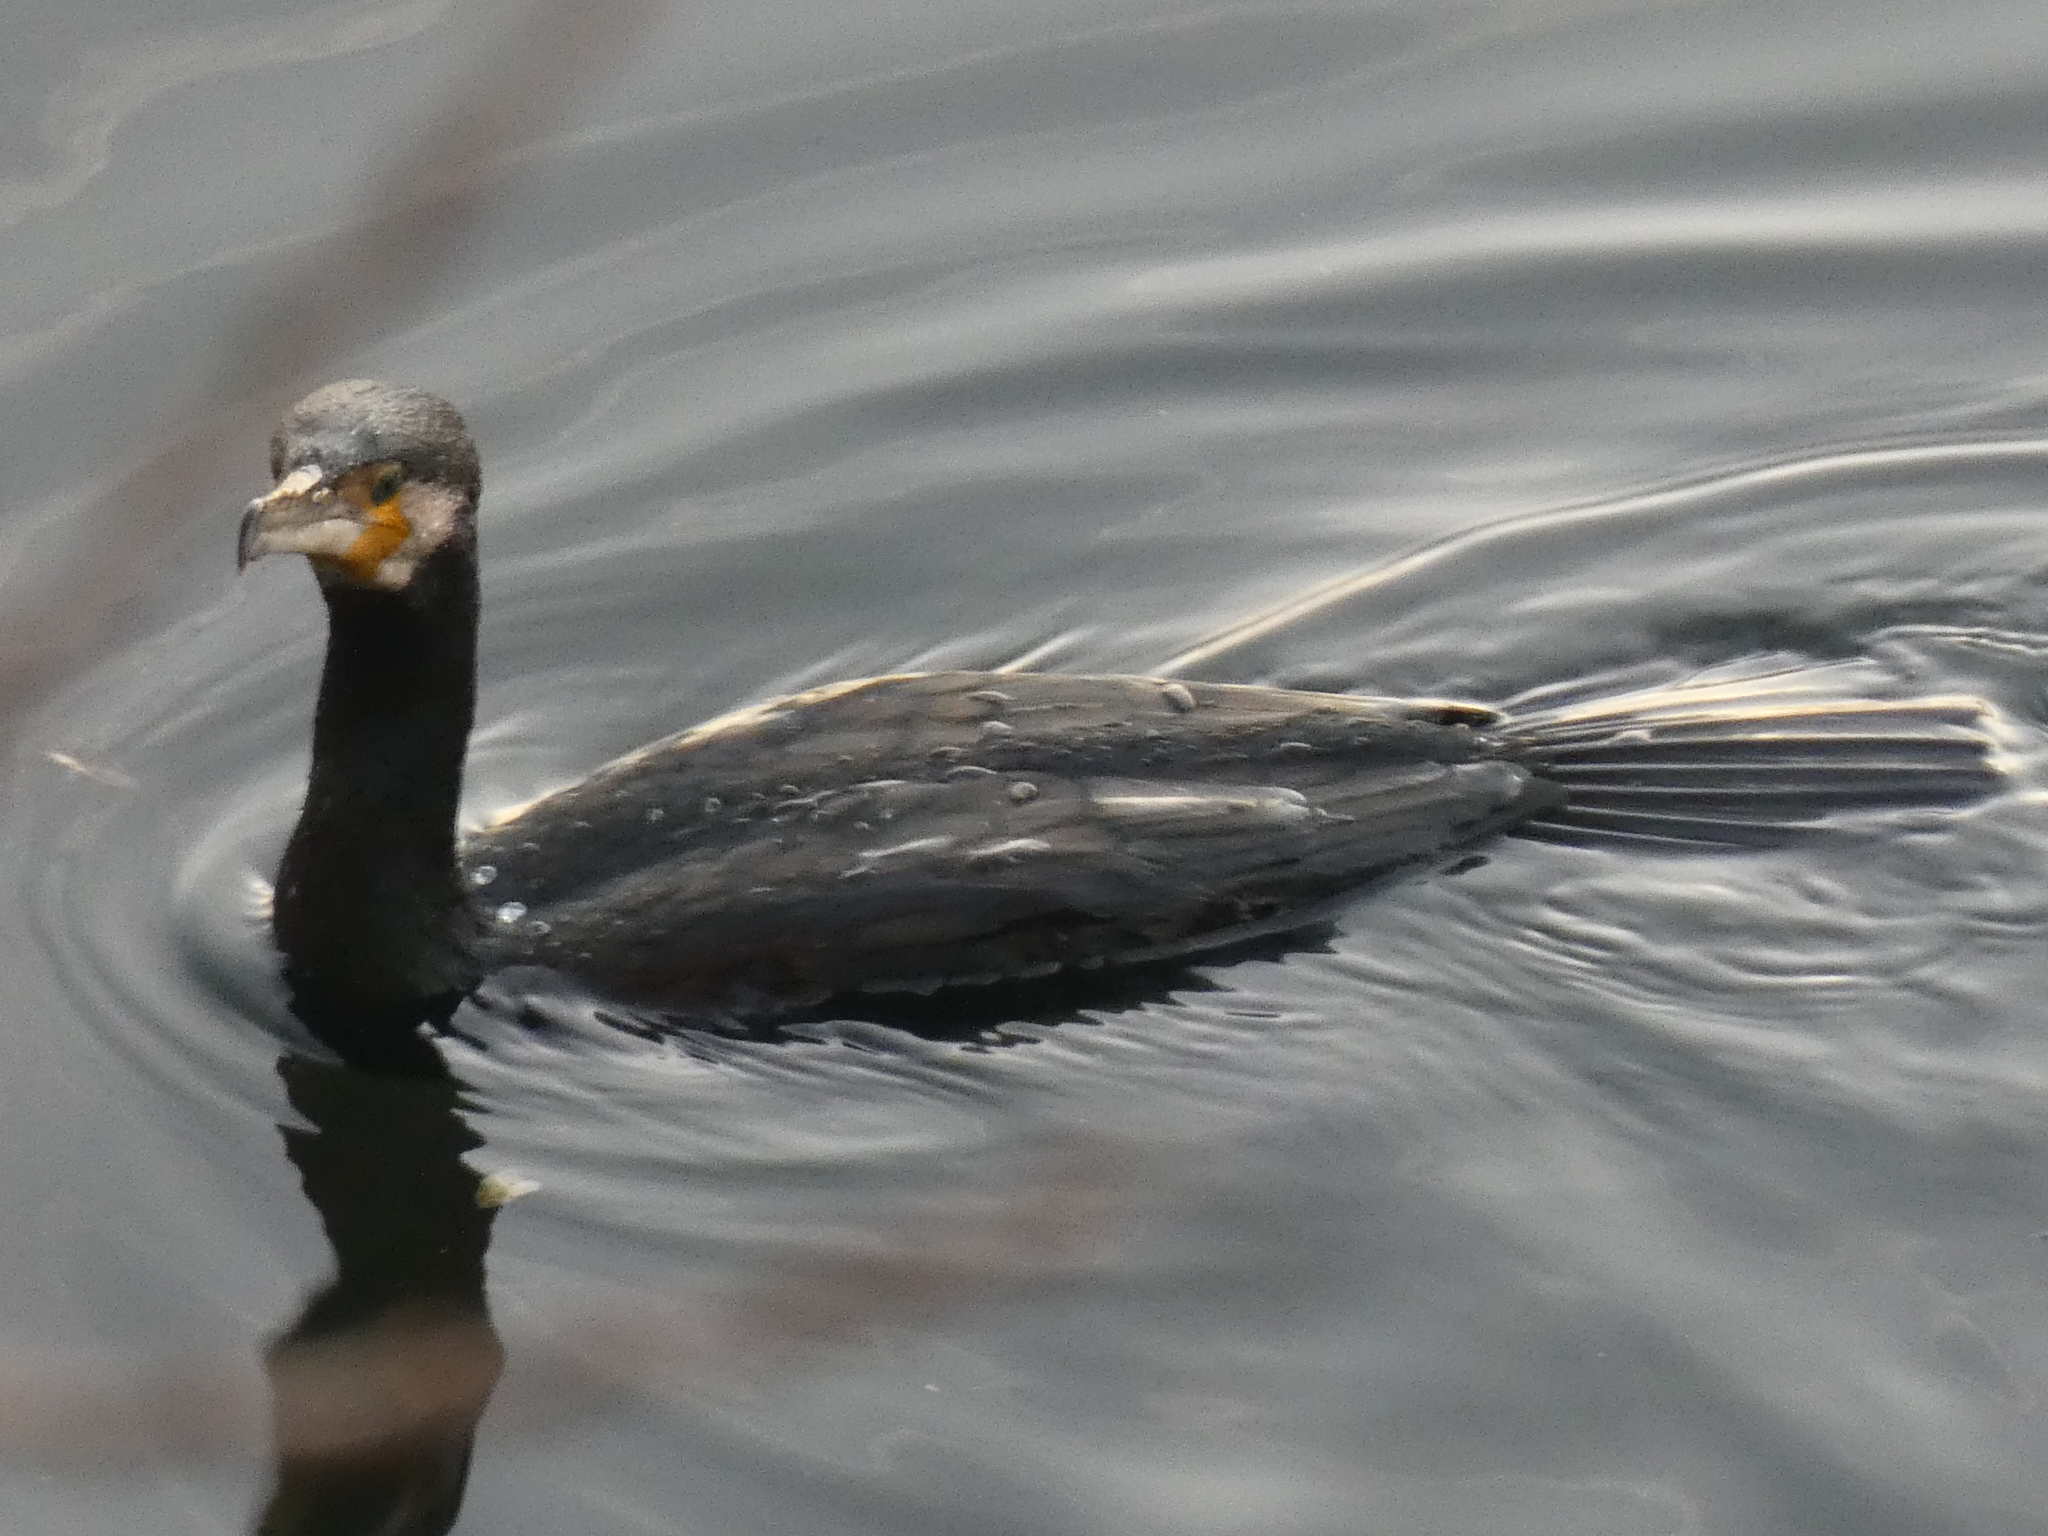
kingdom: Animalia
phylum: Chordata
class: Aves
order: Suliformes
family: Phalacrocoracidae
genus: Phalacrocorax
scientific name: Phalacrocorax carbo
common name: Great cormorant
